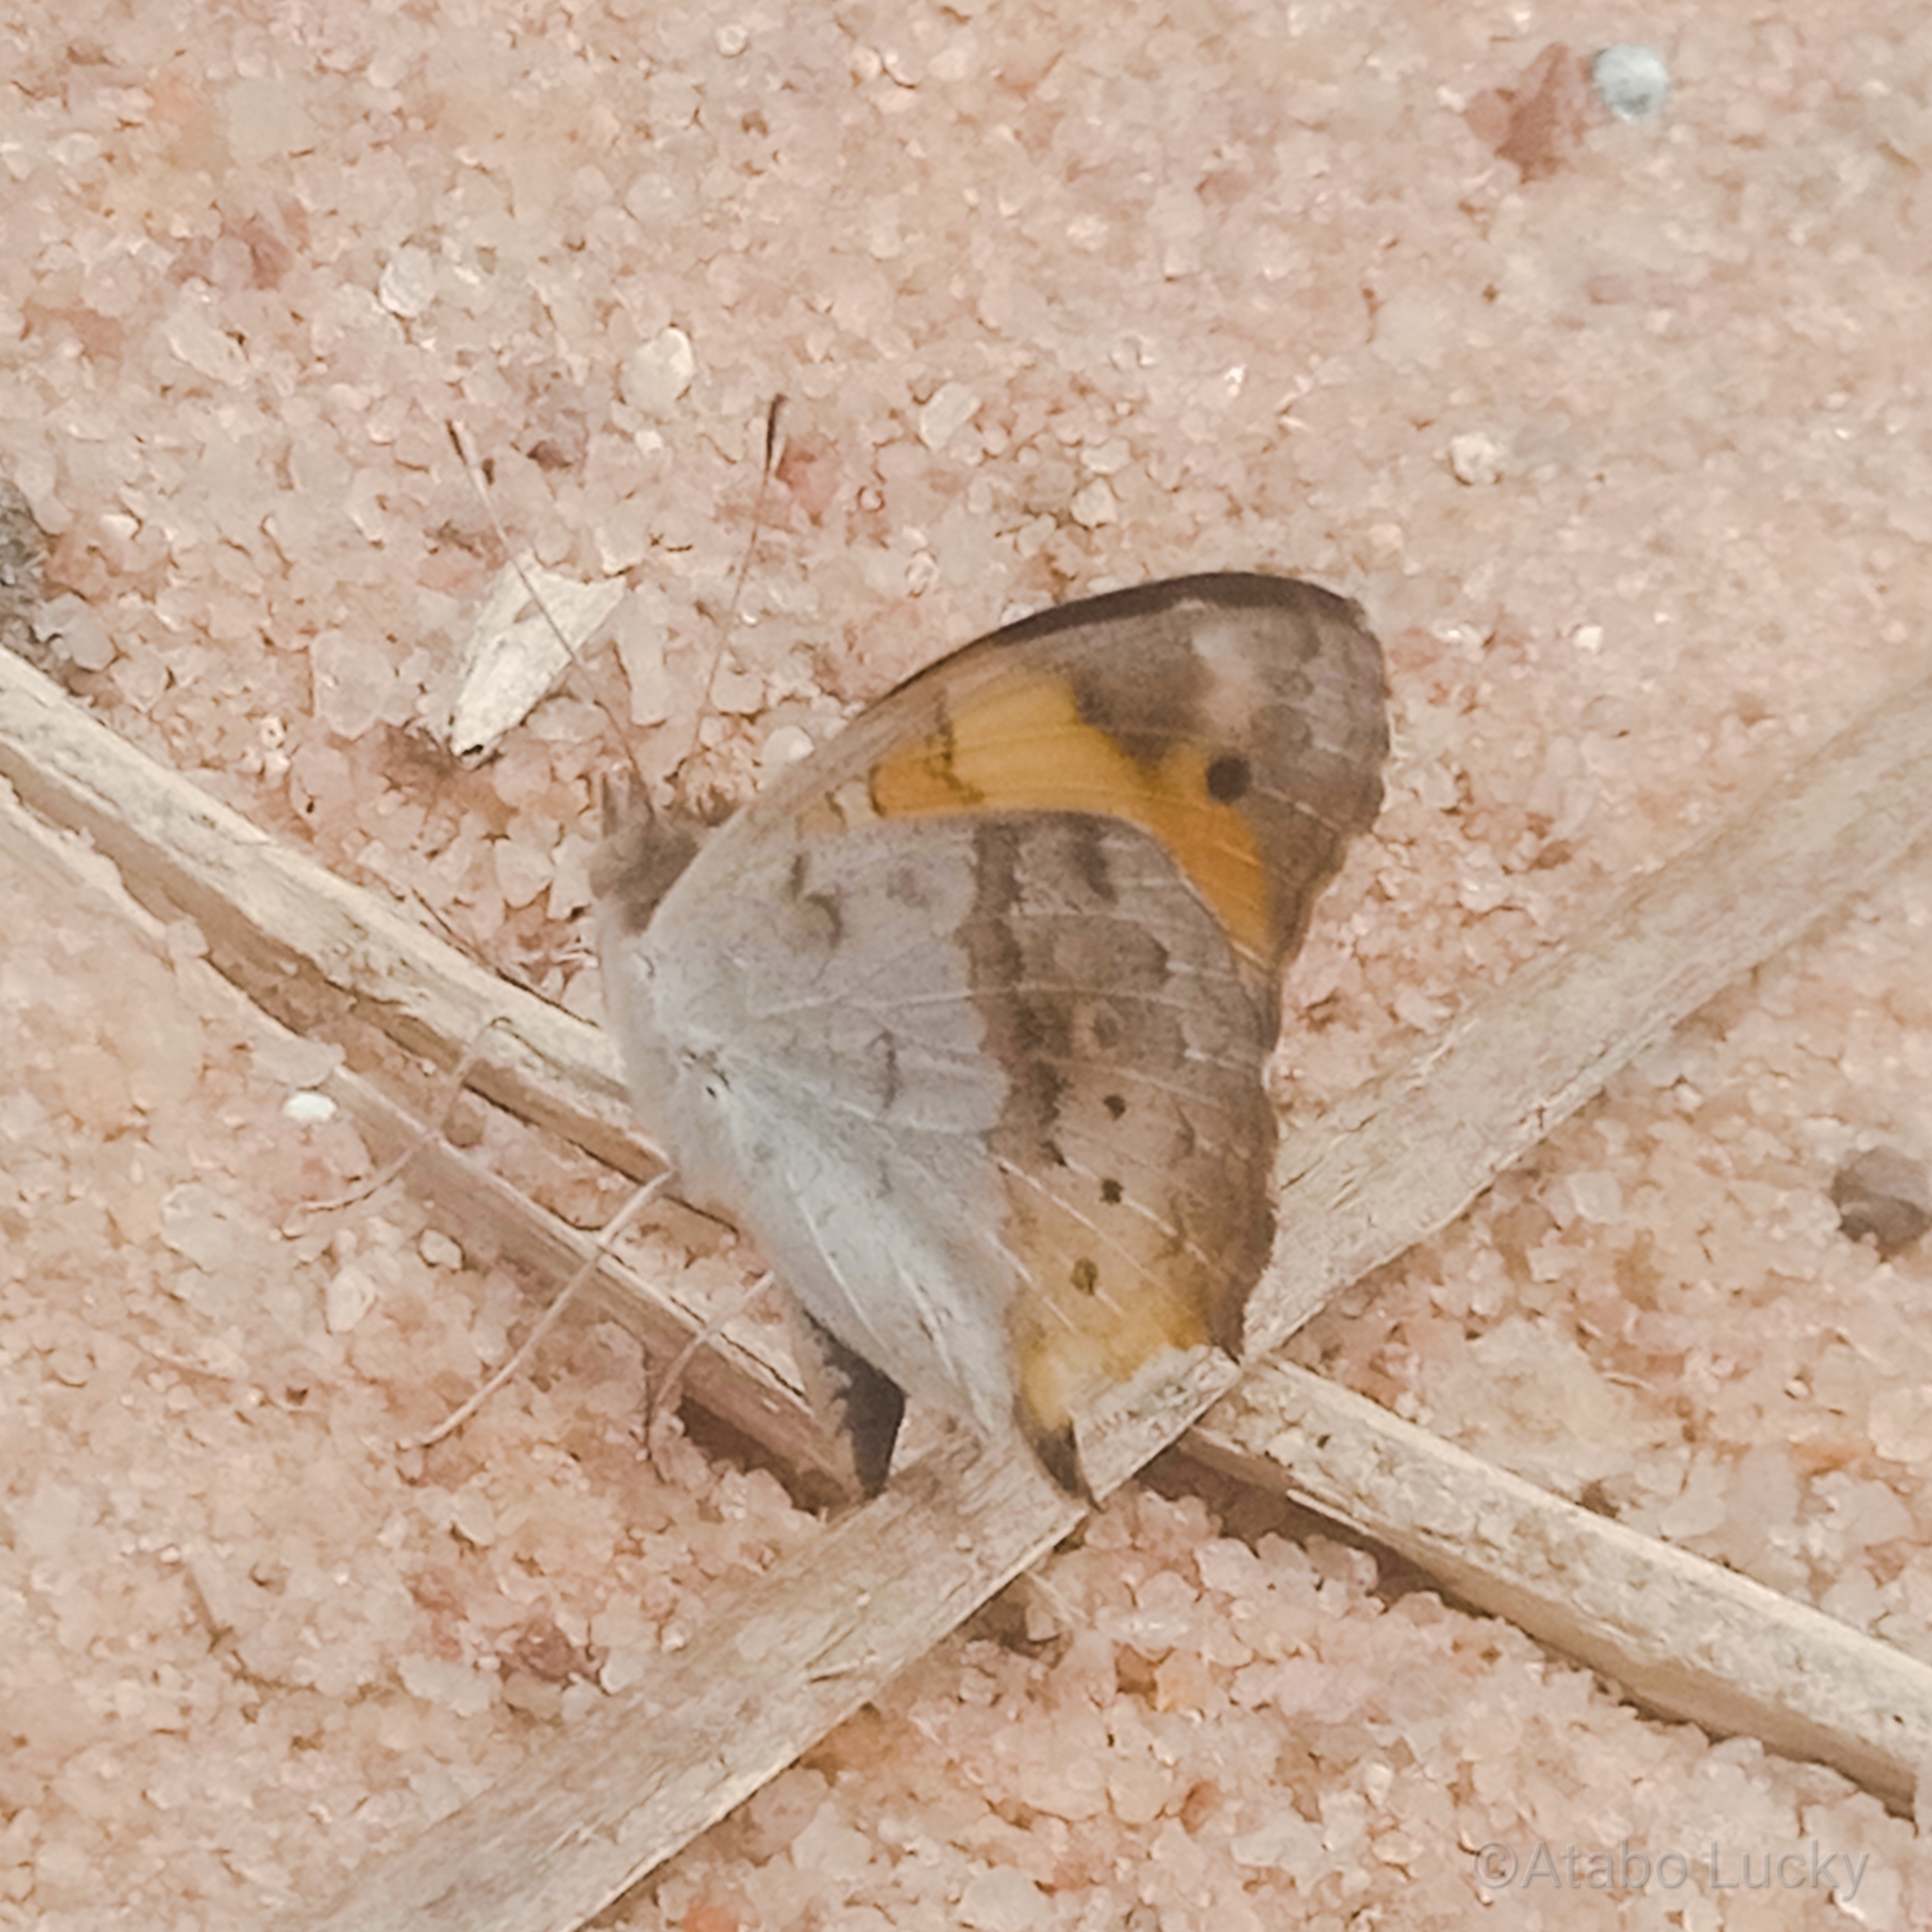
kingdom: Animalia
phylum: Arthropoda
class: Insecta
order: Lepidoptera
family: Nymphalidae
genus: Junonia
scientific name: Junonia hierta
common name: Yellow pansy
